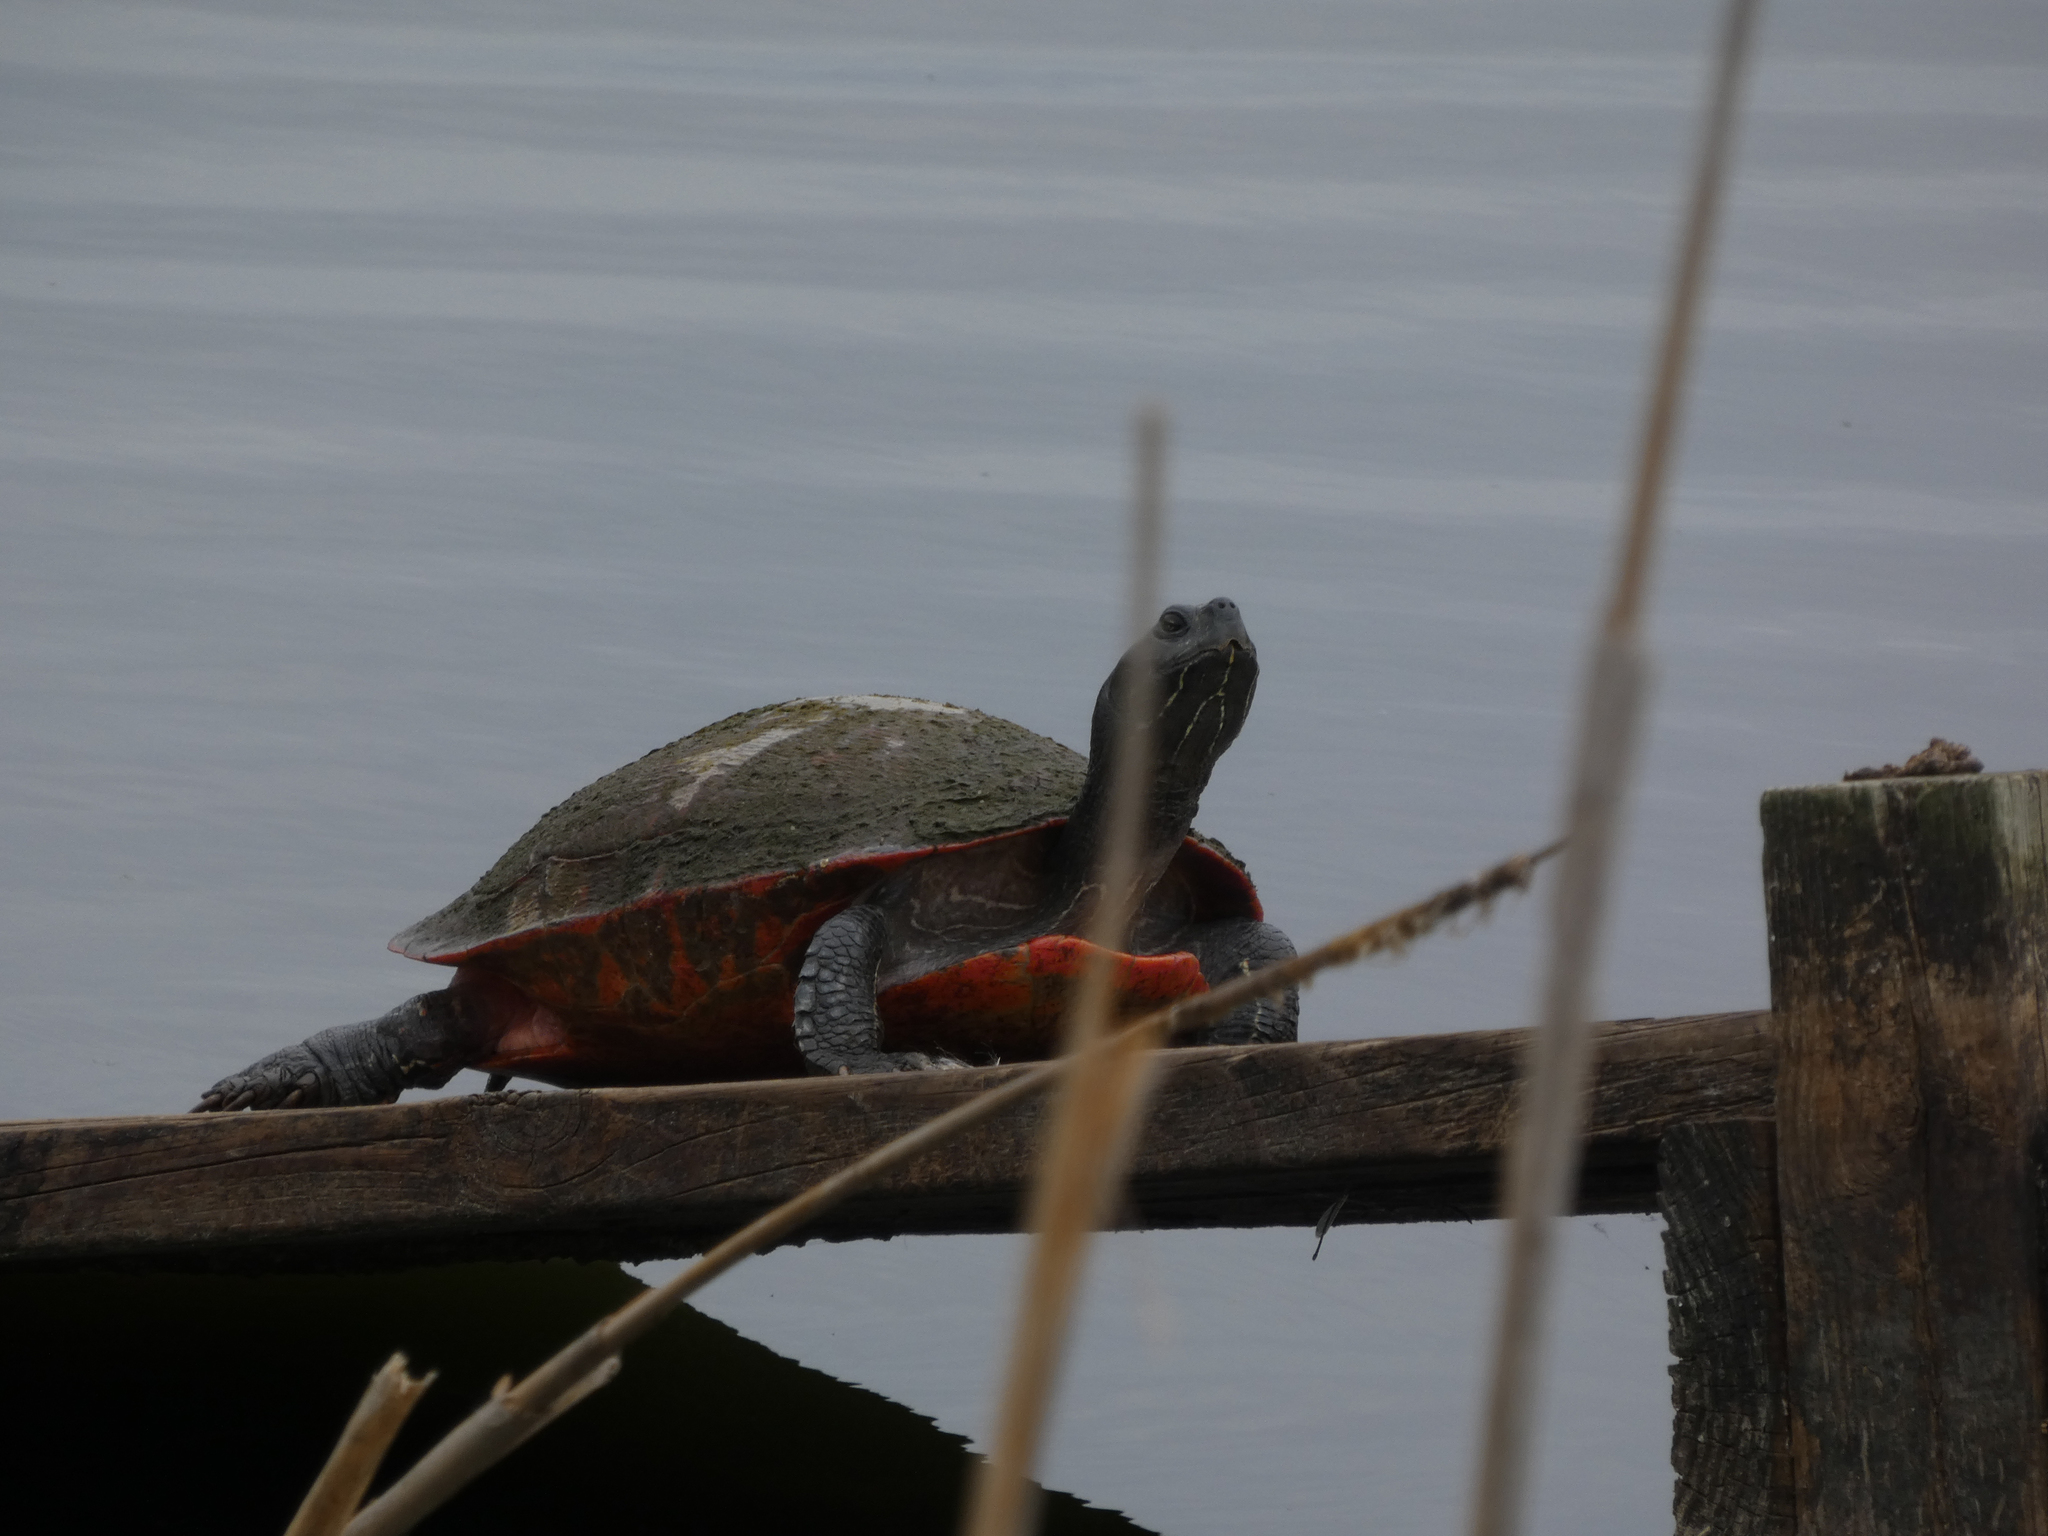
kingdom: Animalia
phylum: Chordata
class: Testudines
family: Emydidae
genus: Pseudemys
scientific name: Pseudemys rubriventris
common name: American red-bellied turtle
